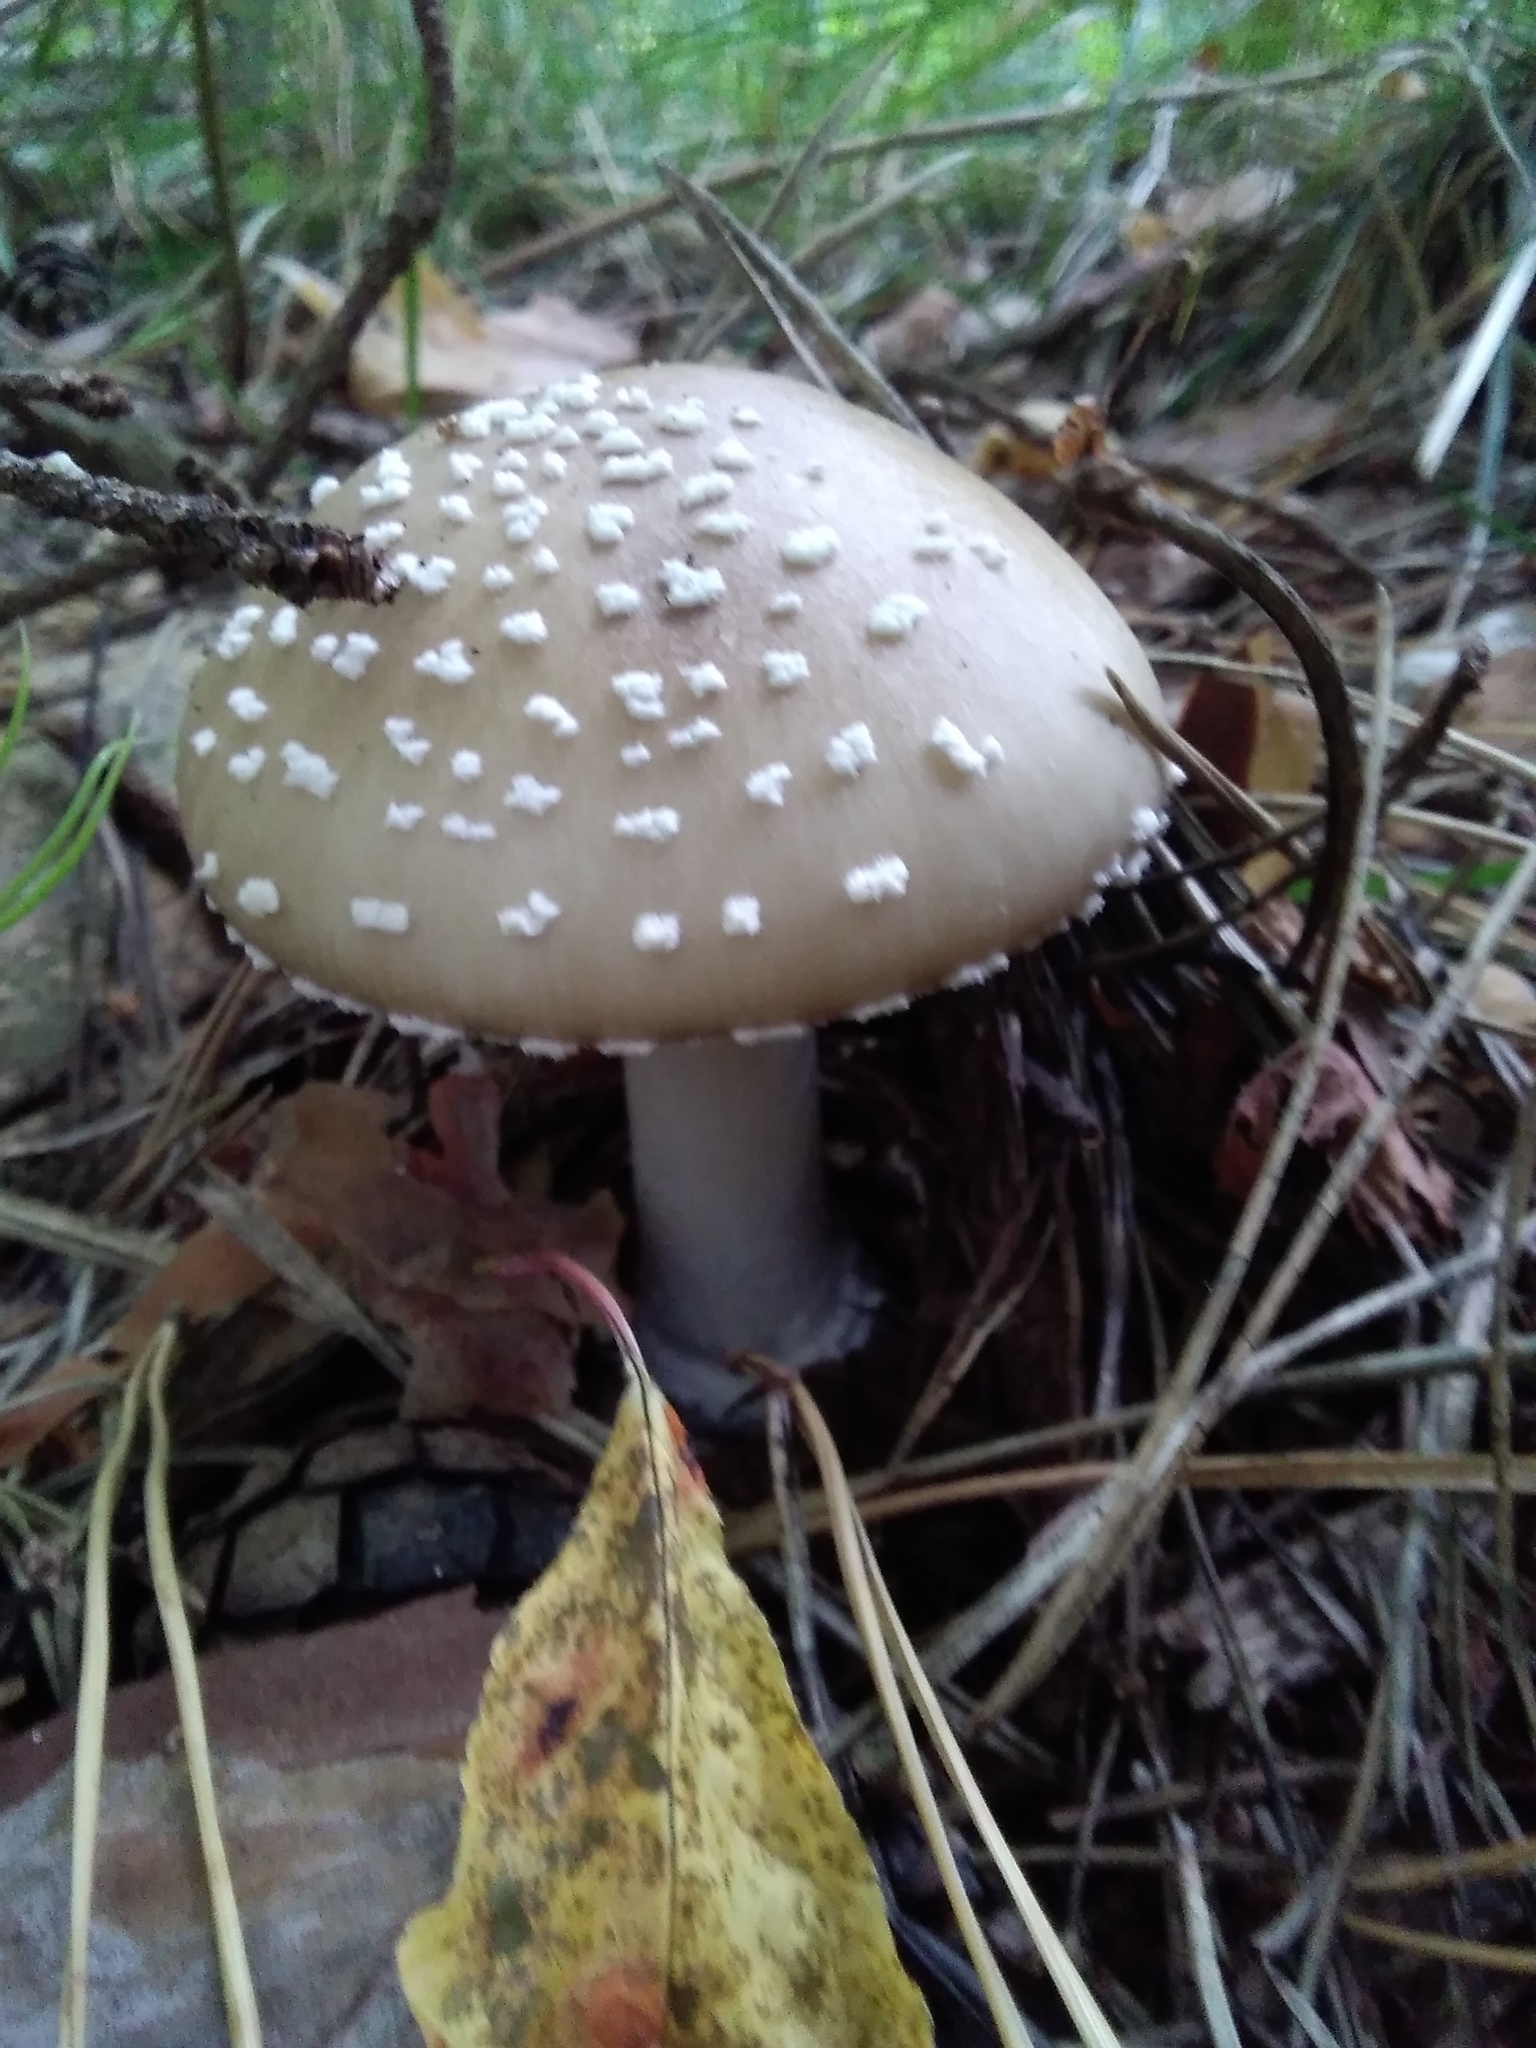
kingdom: Fungi
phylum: Basidiomycota
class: Agaricomycetes
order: Agaricales
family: Amanitaceae
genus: Amanita
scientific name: Amanita pantherina
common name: Panthercap
